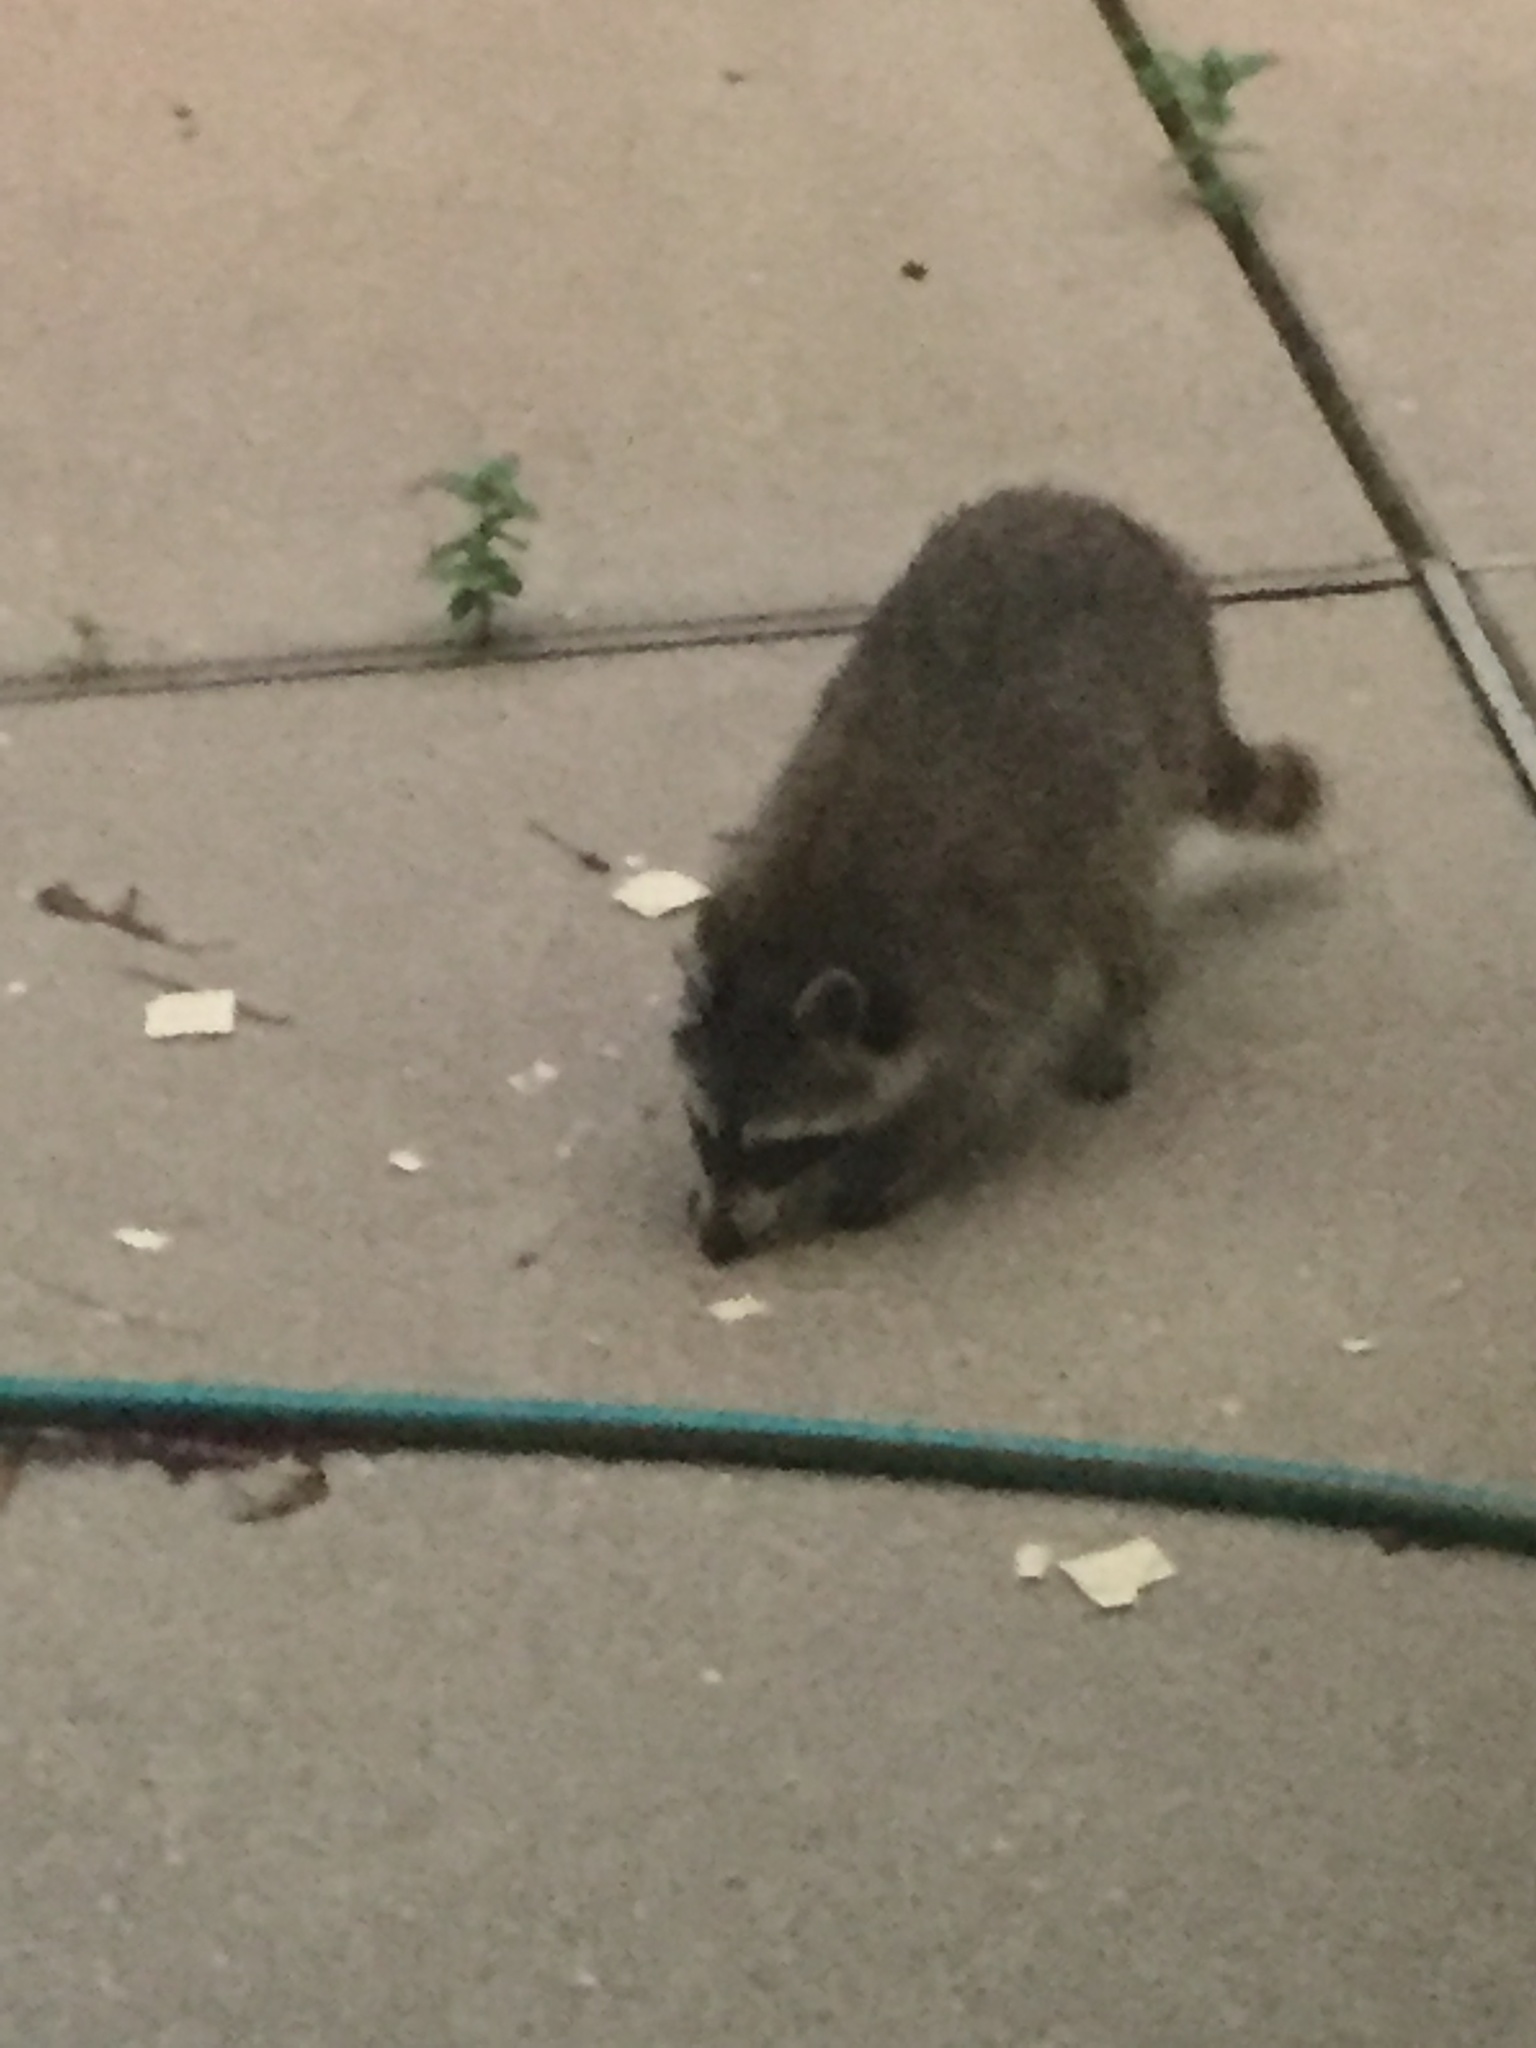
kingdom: Animalia
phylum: Chordata
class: Mammalia
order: Carnivora
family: Procyonidae
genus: Procyon
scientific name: Procyon lotor
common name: Raccoon
